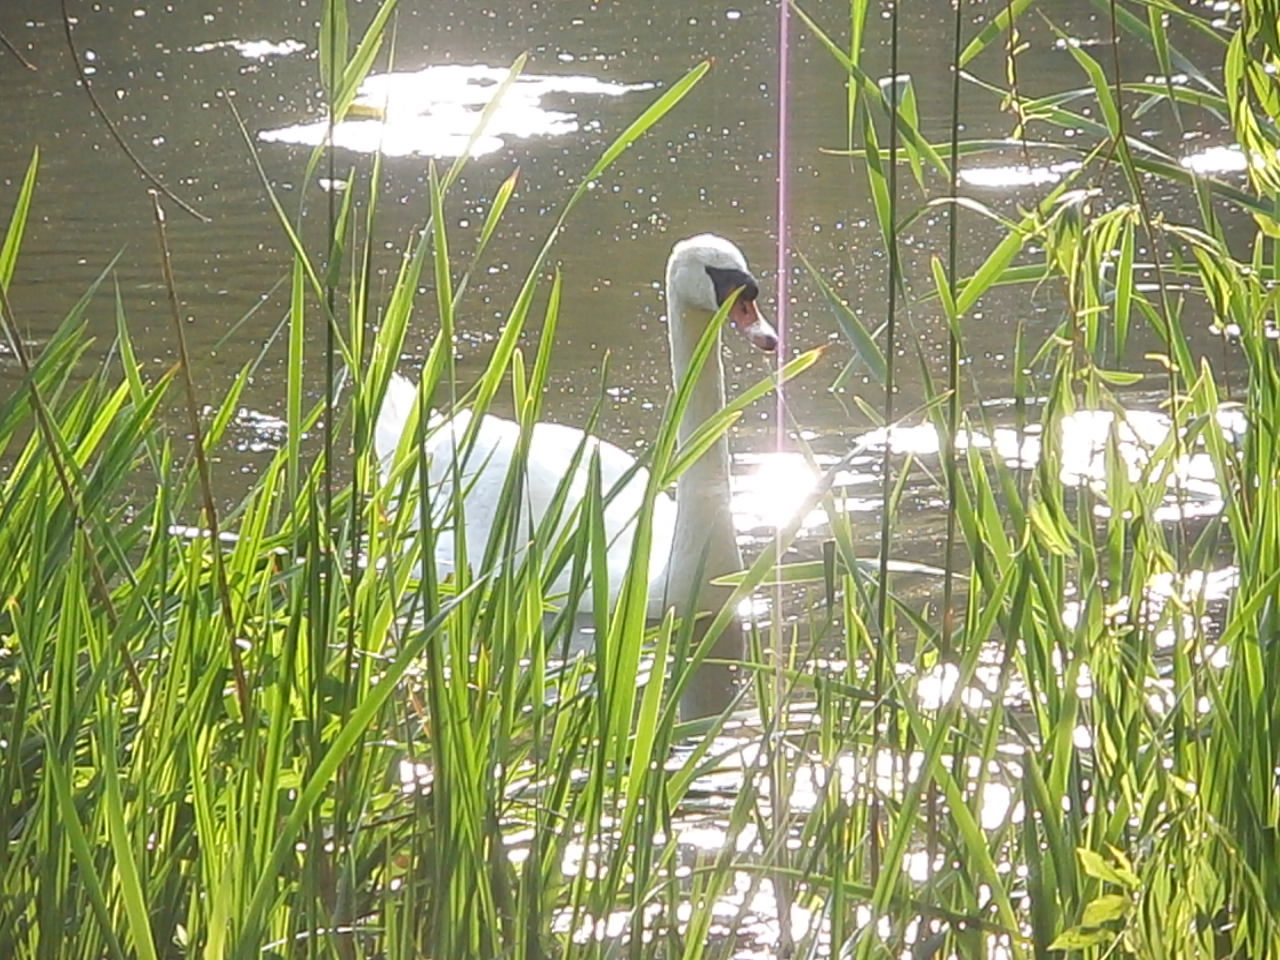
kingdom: Animalia
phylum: Chordata
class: Aves
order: Anseriformes
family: Anatidae
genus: Cygnus
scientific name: Cygnus olor
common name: Mute swan
